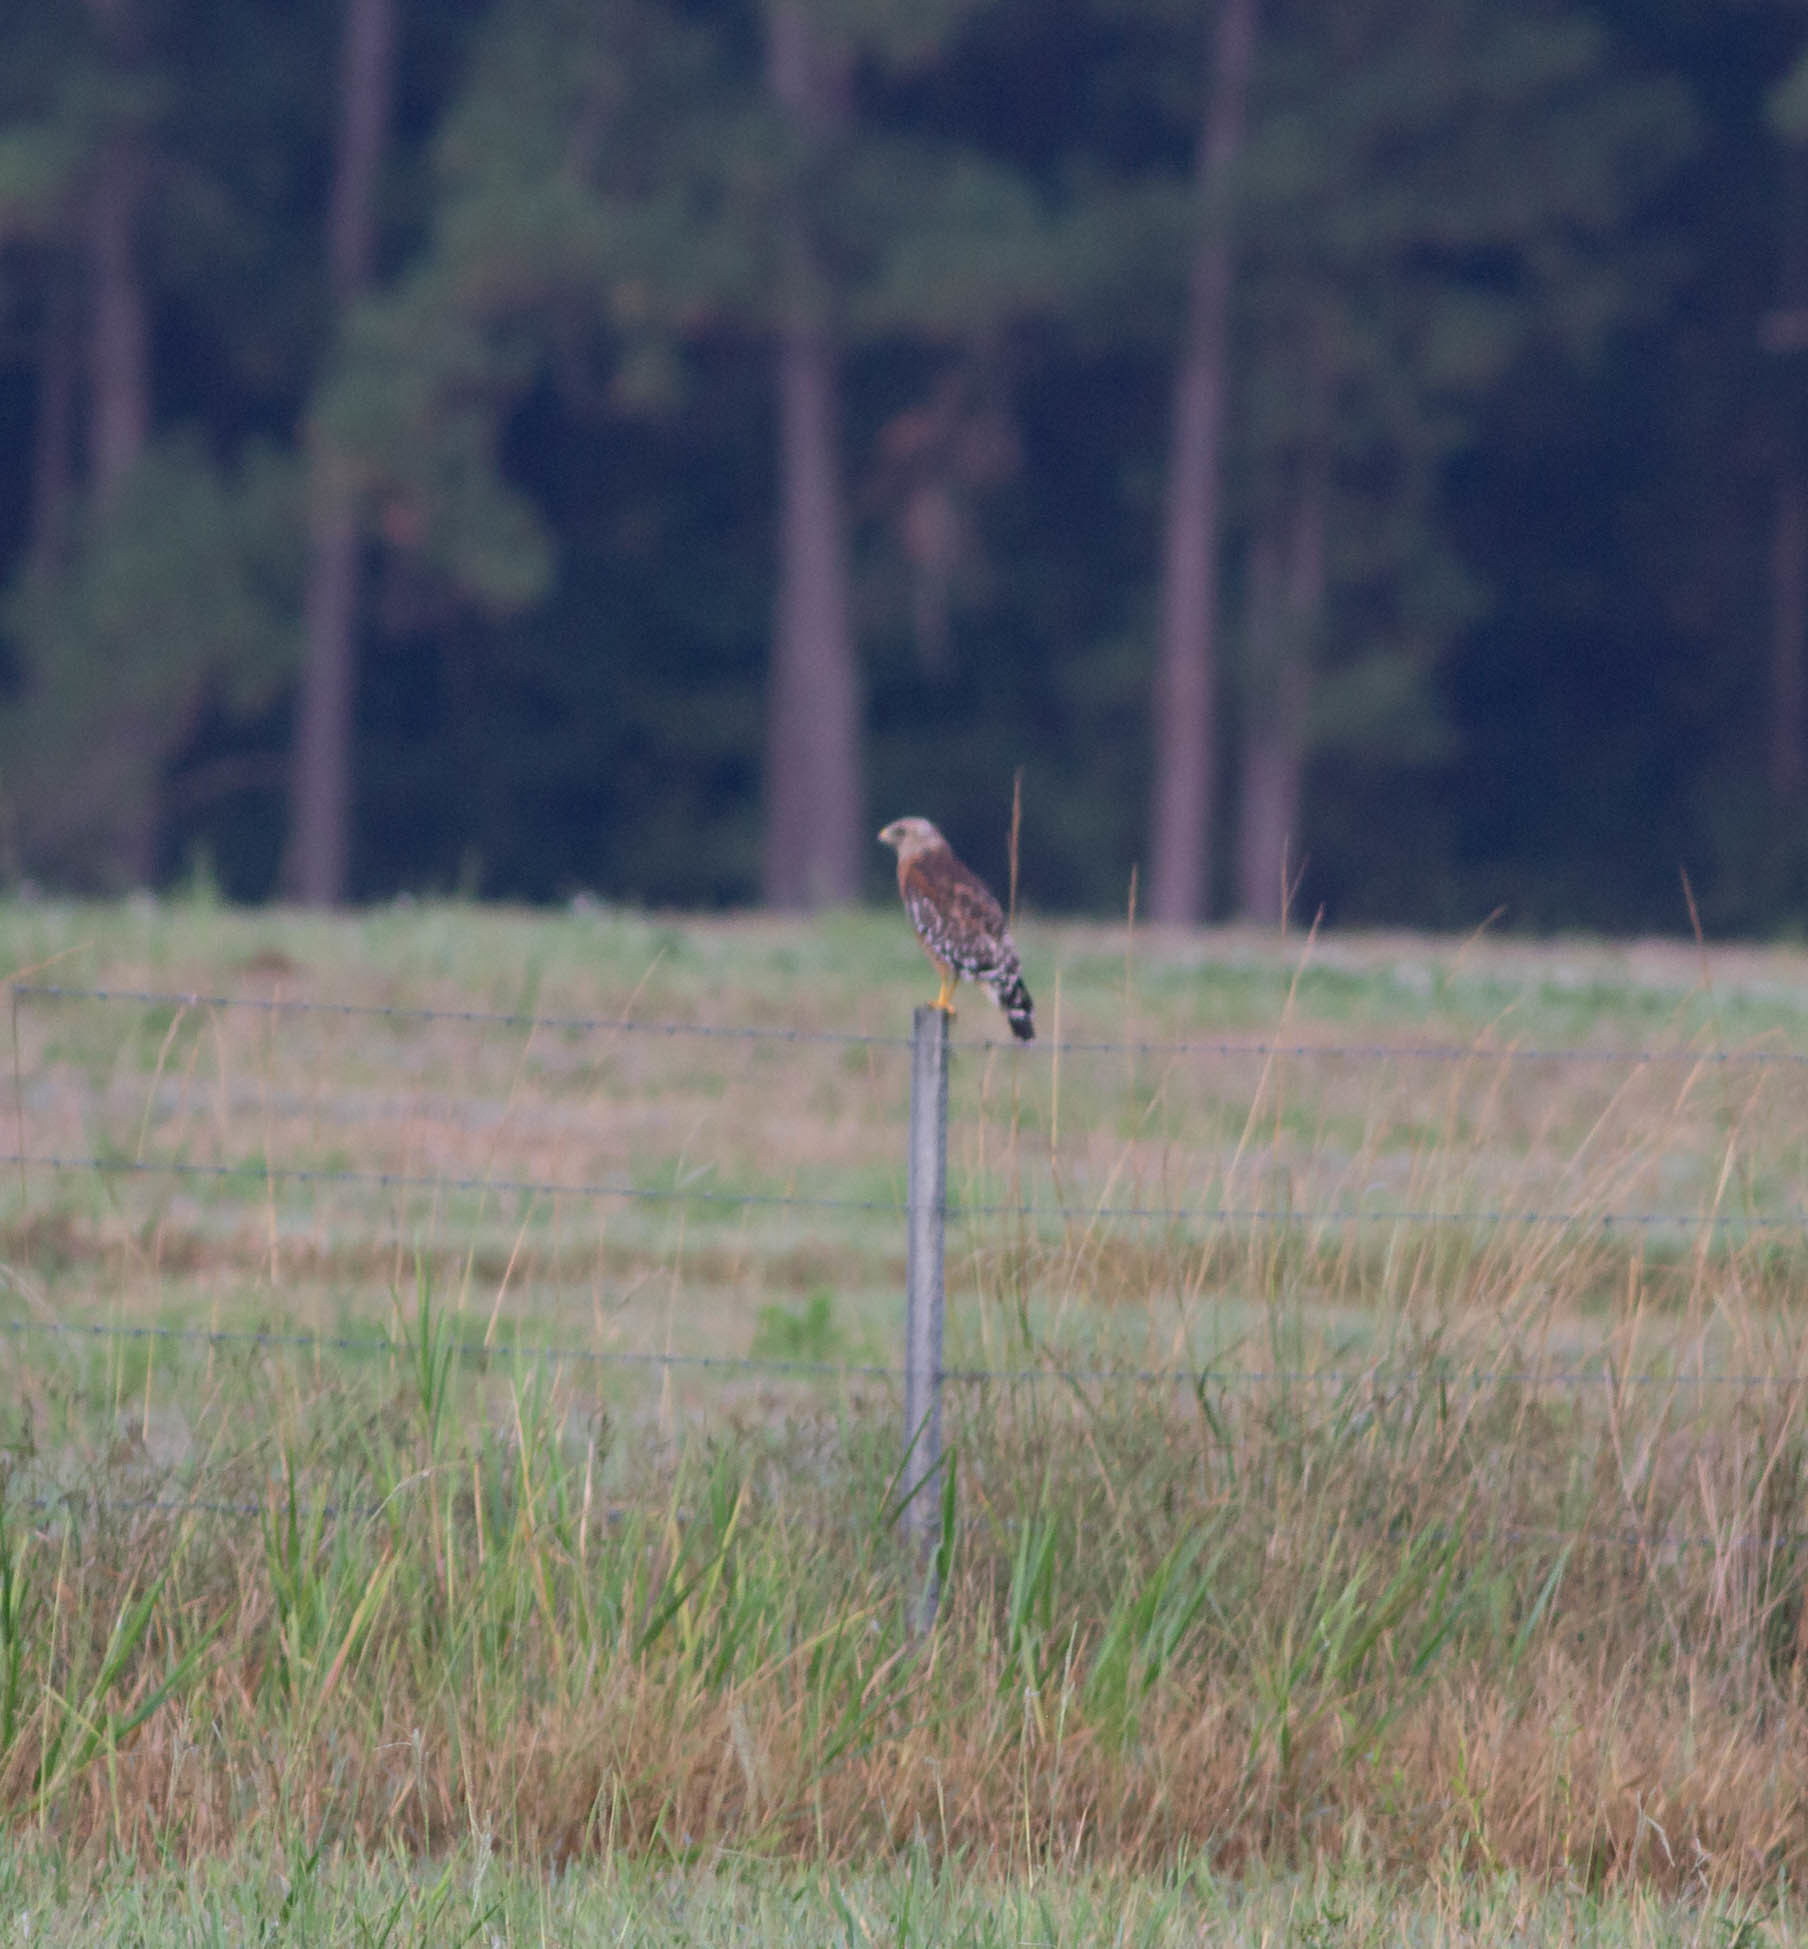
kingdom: Animalia
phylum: Chordata
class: Aves
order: Accipitriformes
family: Accipitridae
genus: Buteo
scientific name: Buteo lineatus
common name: Red-shouldered hawk
